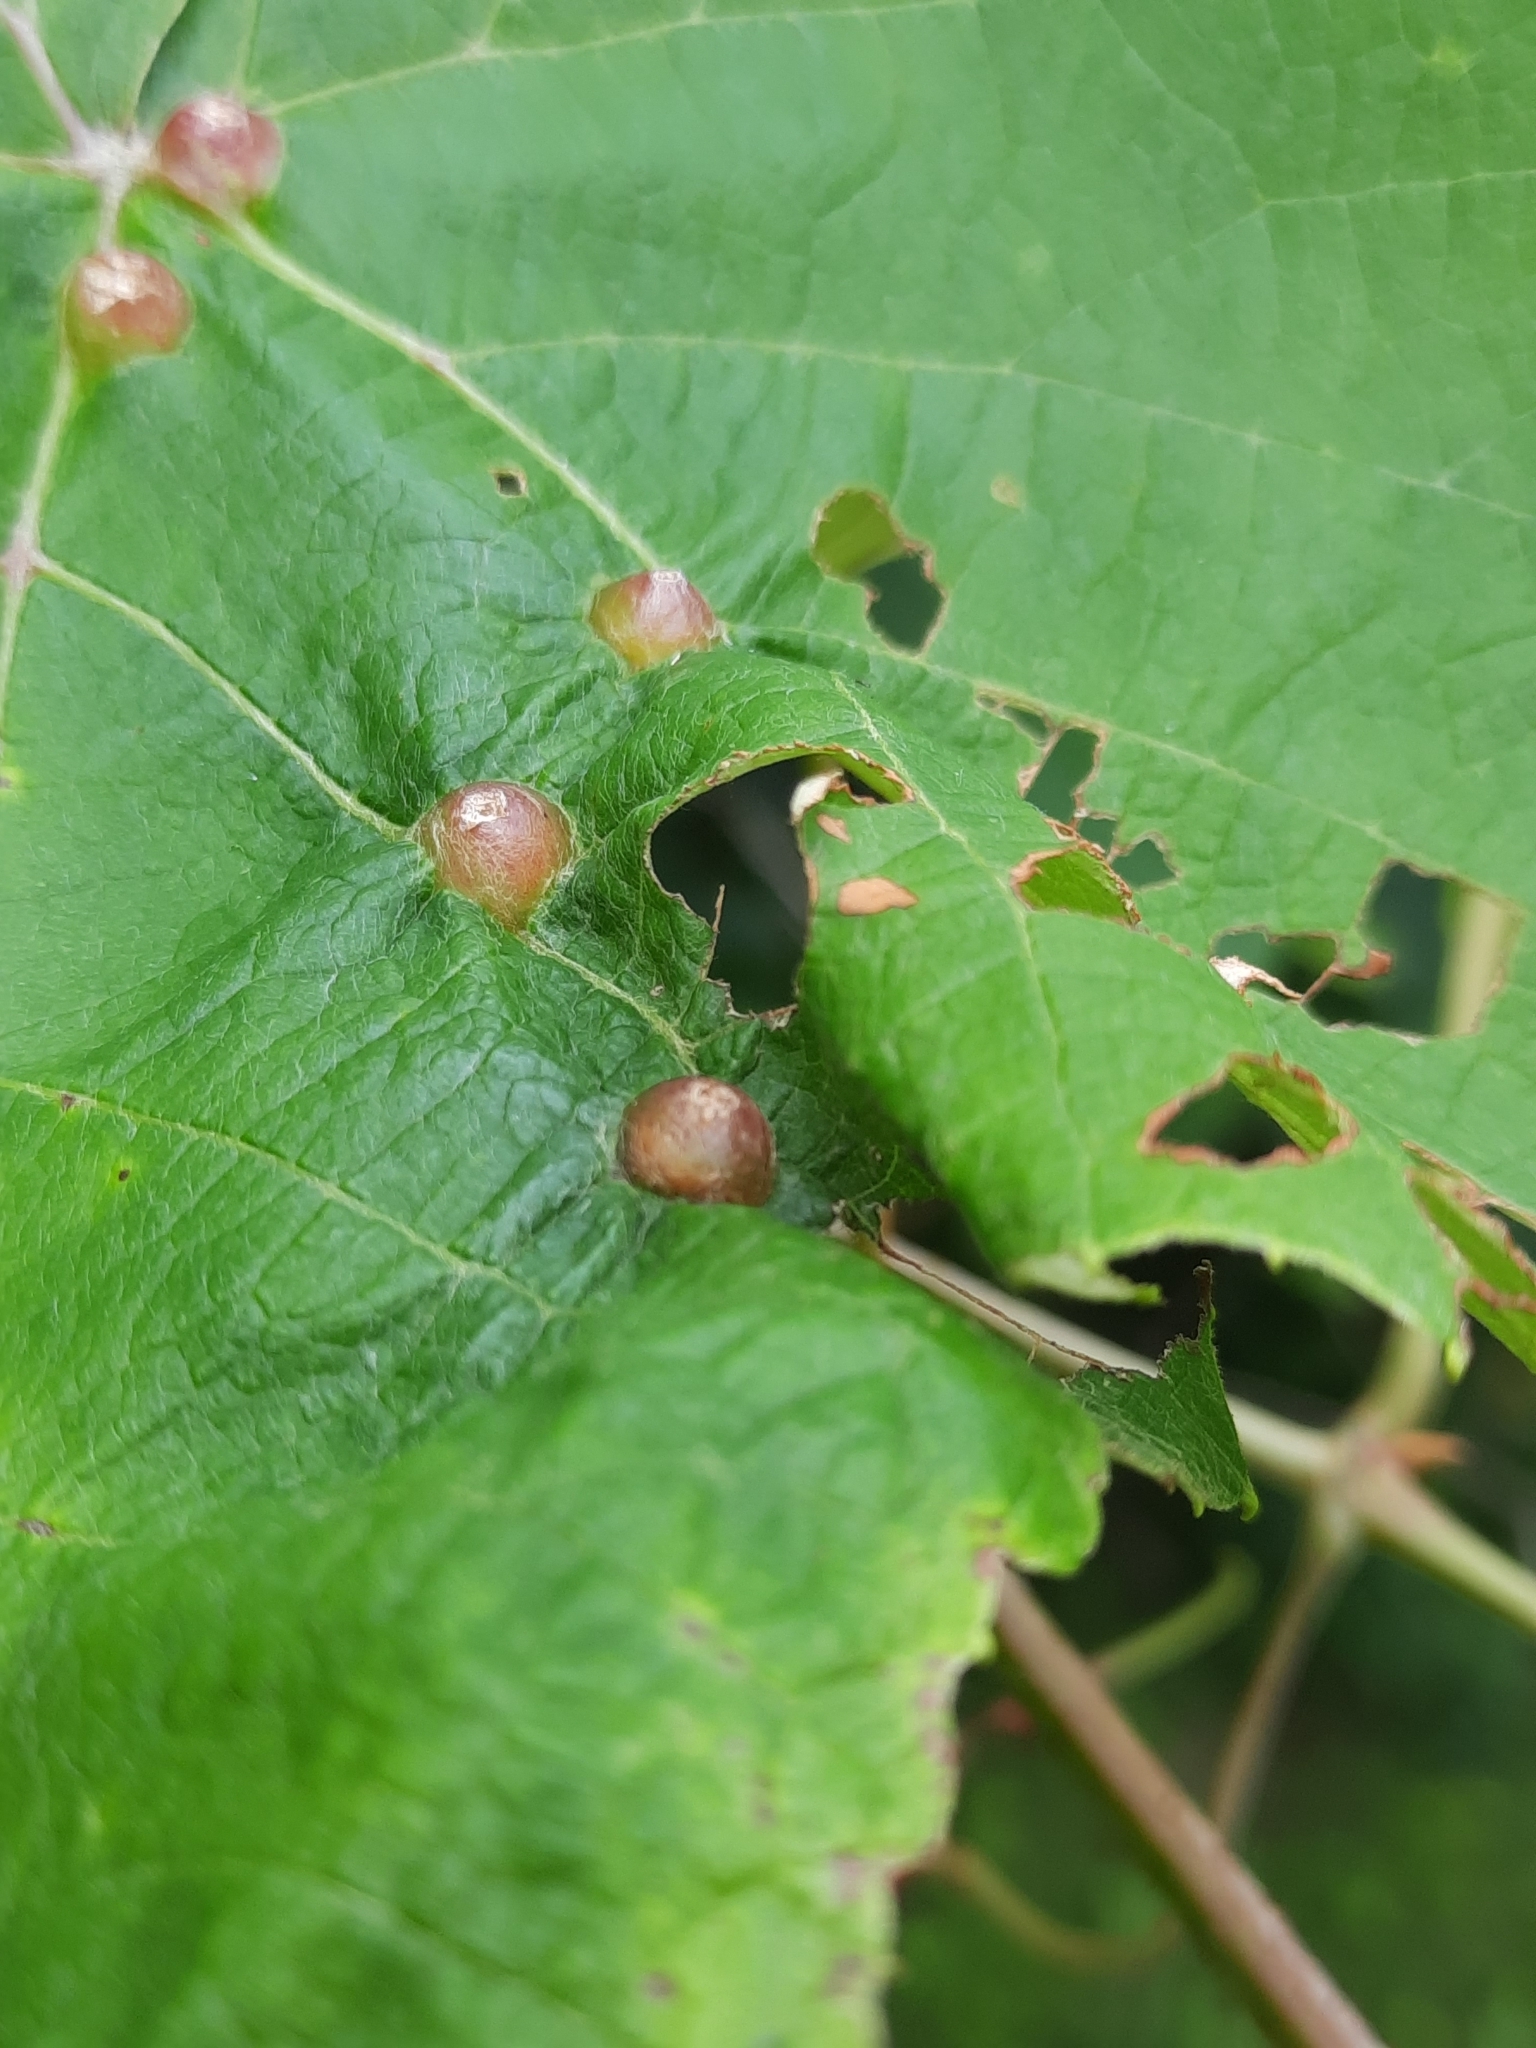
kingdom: Animalia
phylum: Arthropoda
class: Insecta
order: Diptera
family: Cecidomyiidae
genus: Vitisiella
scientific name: Vitisiella brevicauda
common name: Grape tumid gallmaker midge
